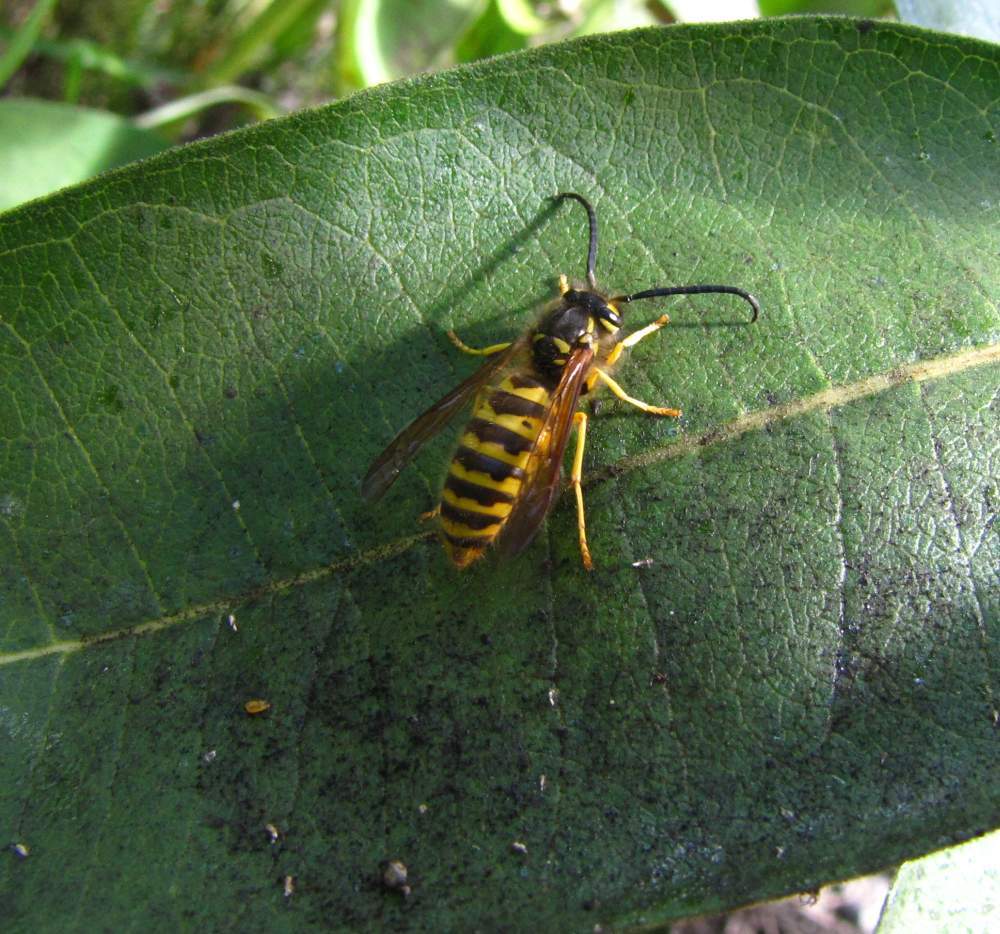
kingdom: Animalia
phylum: Arthropoda
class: Insecta
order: Hymenoptera
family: Vespidae
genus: Vespula
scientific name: Vespula flavopilosa
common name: Downy yellowjacket
